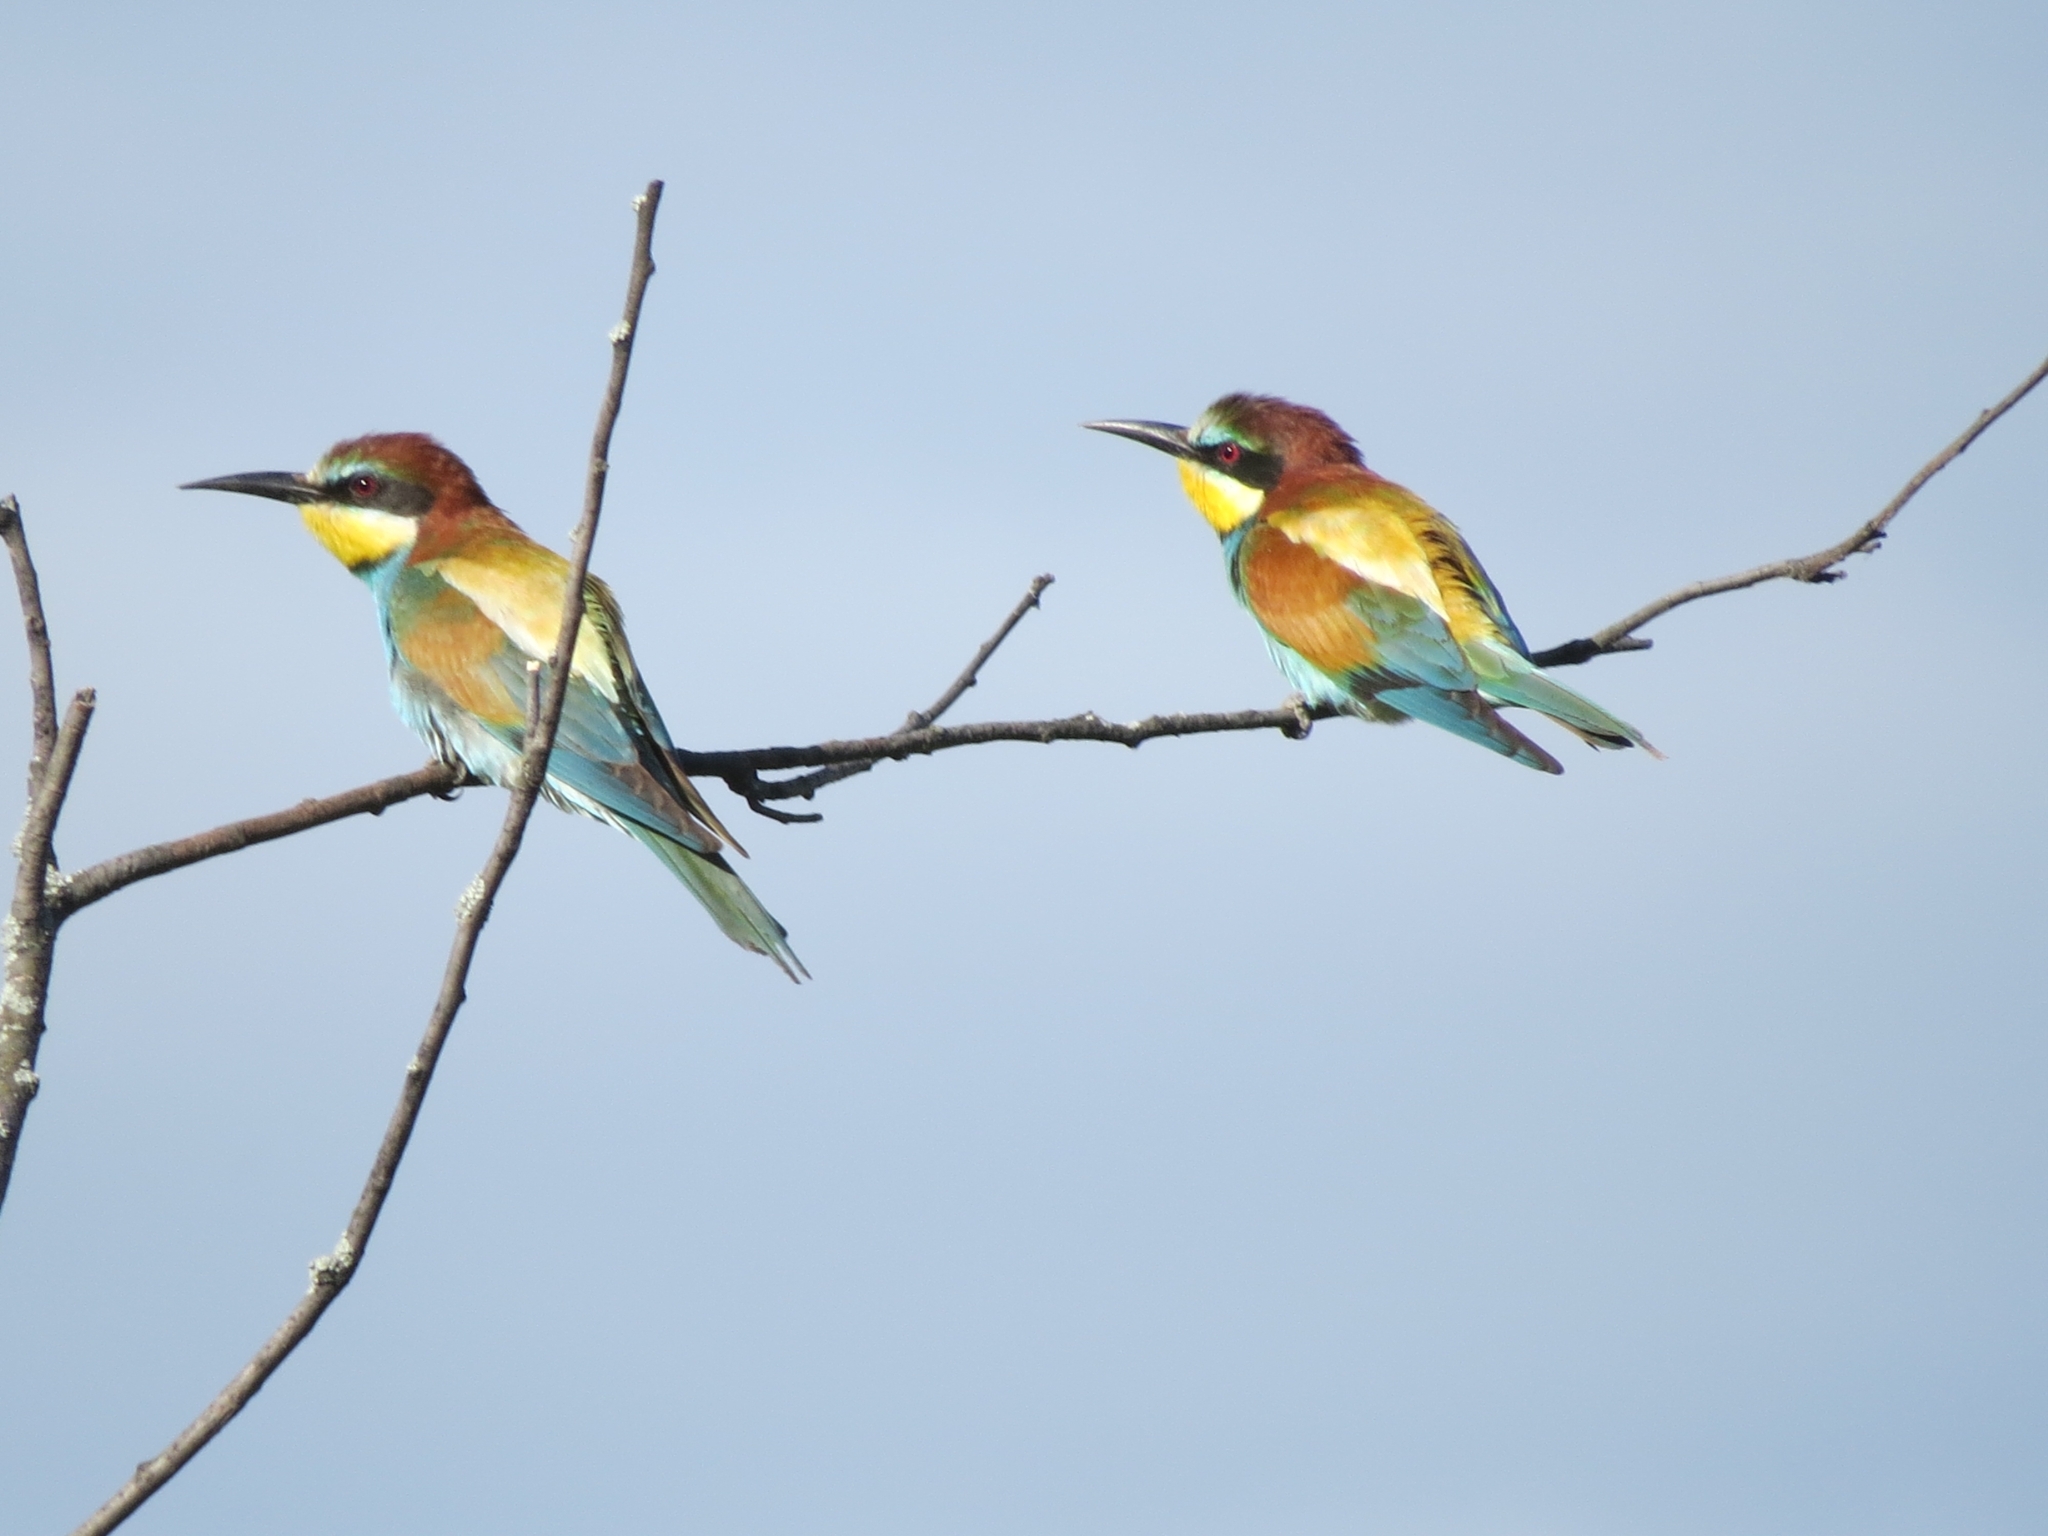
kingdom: Animalia
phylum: Chordata
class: Aves
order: Coraciiformes
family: Meropidae
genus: Merops
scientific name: Merops apiaster
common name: European bee-eater
